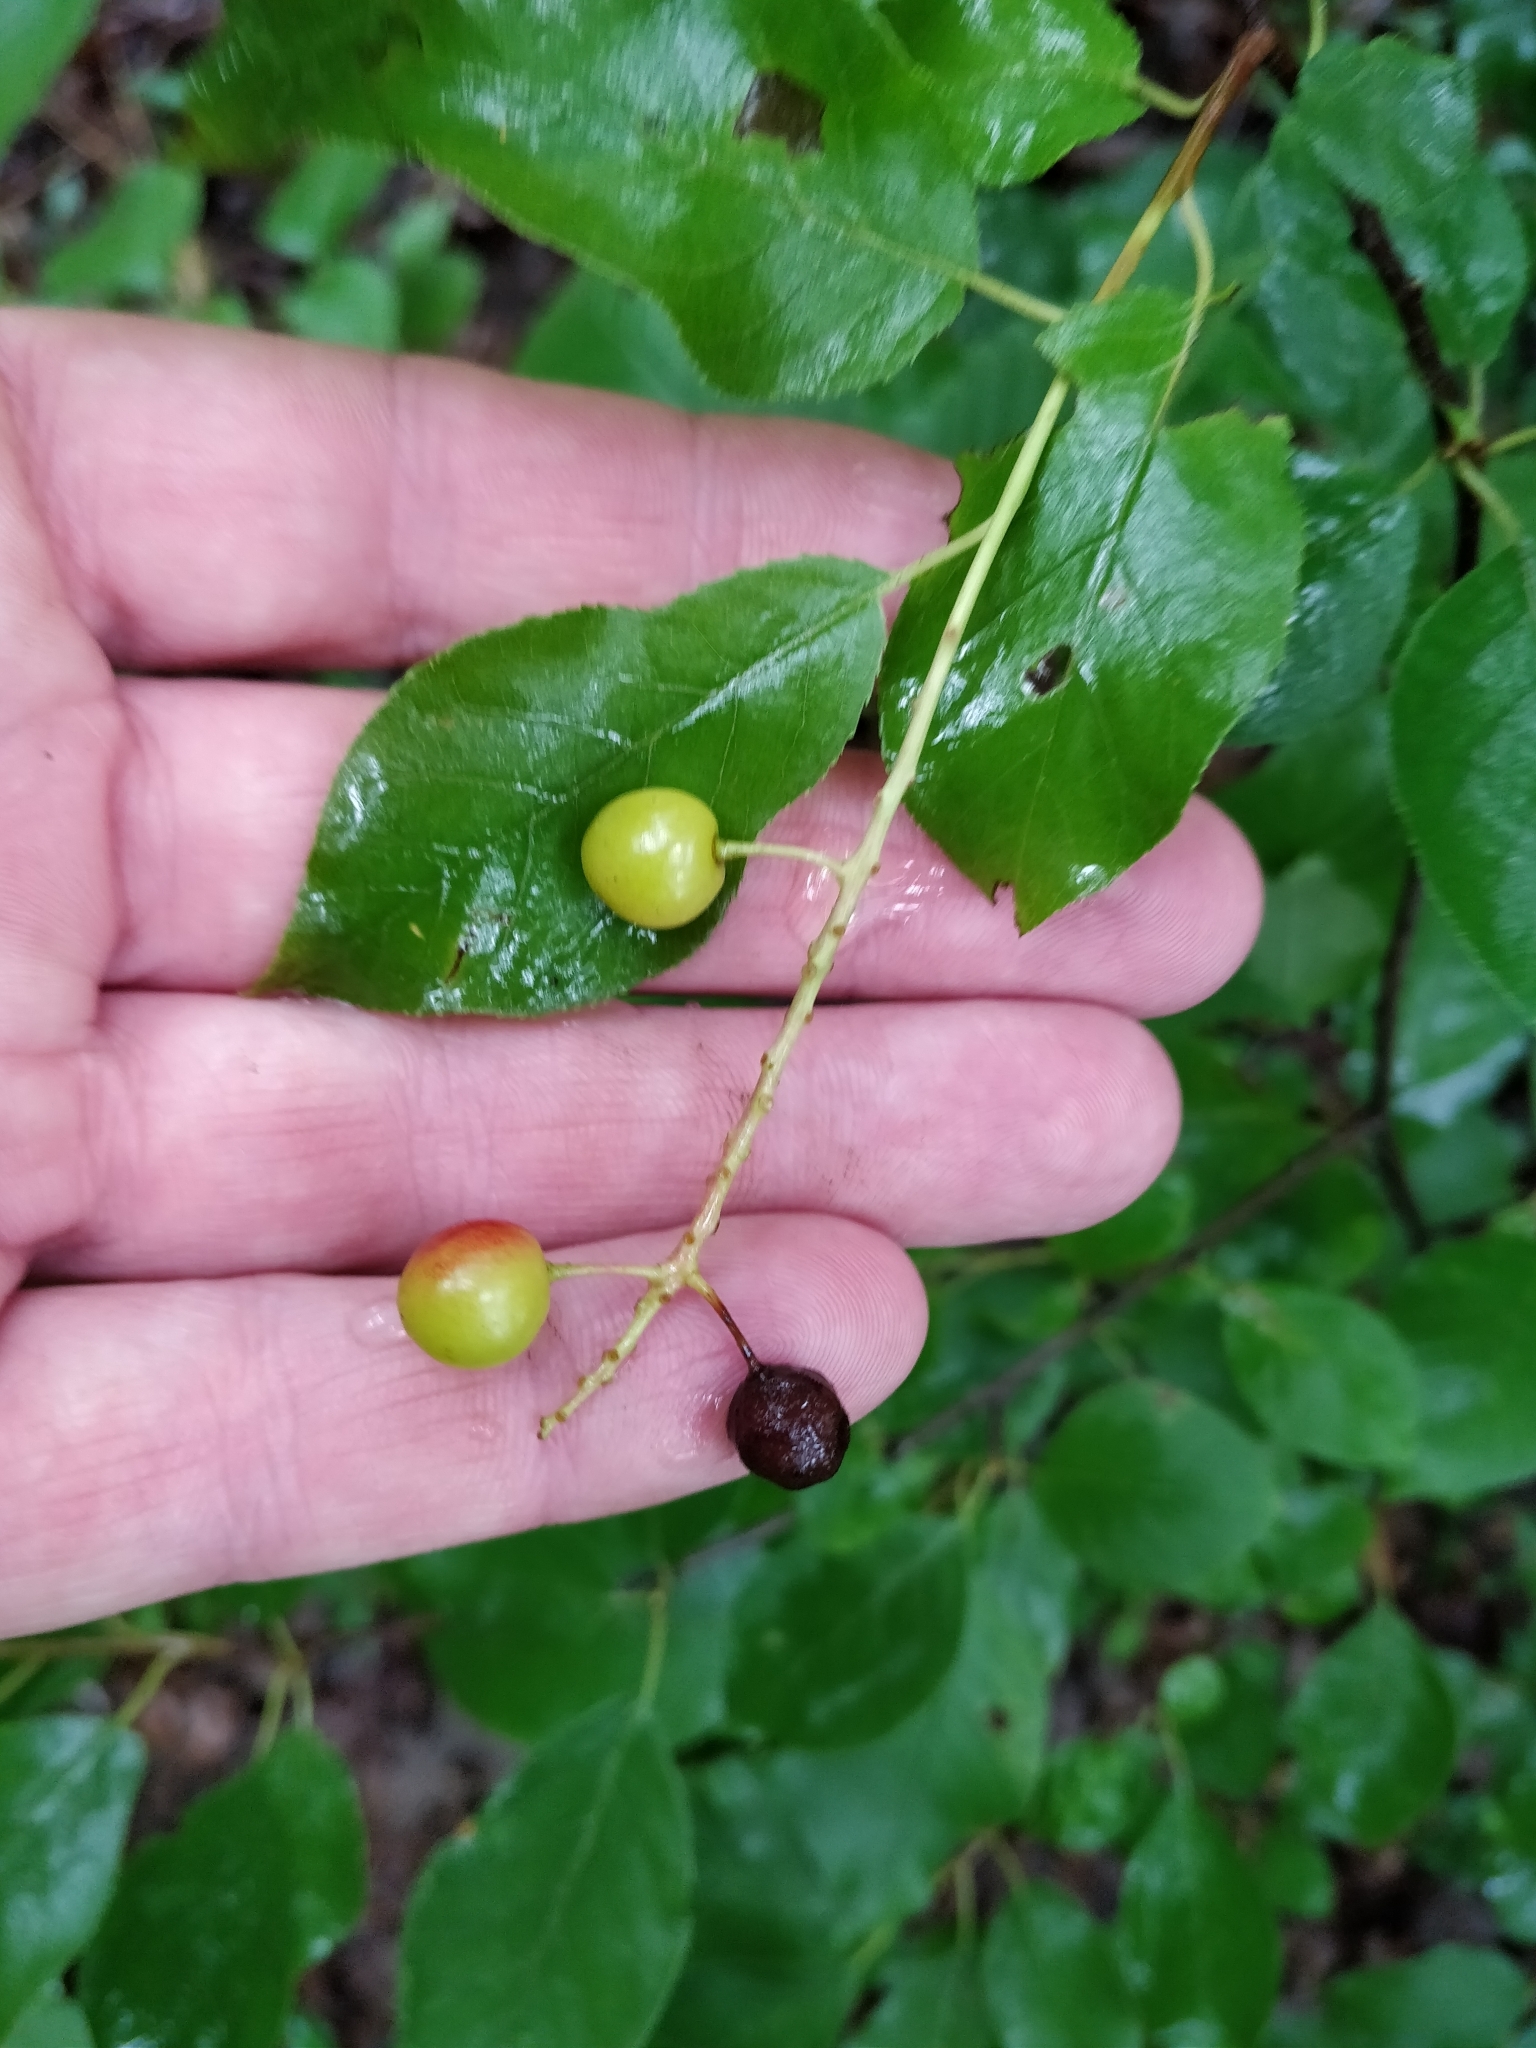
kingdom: Plantae
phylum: Tracheophyta
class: Magnoliopsida
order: Rosales
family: Rosaceae
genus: Prunus
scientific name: Prunus virginiana
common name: Chokecherry
